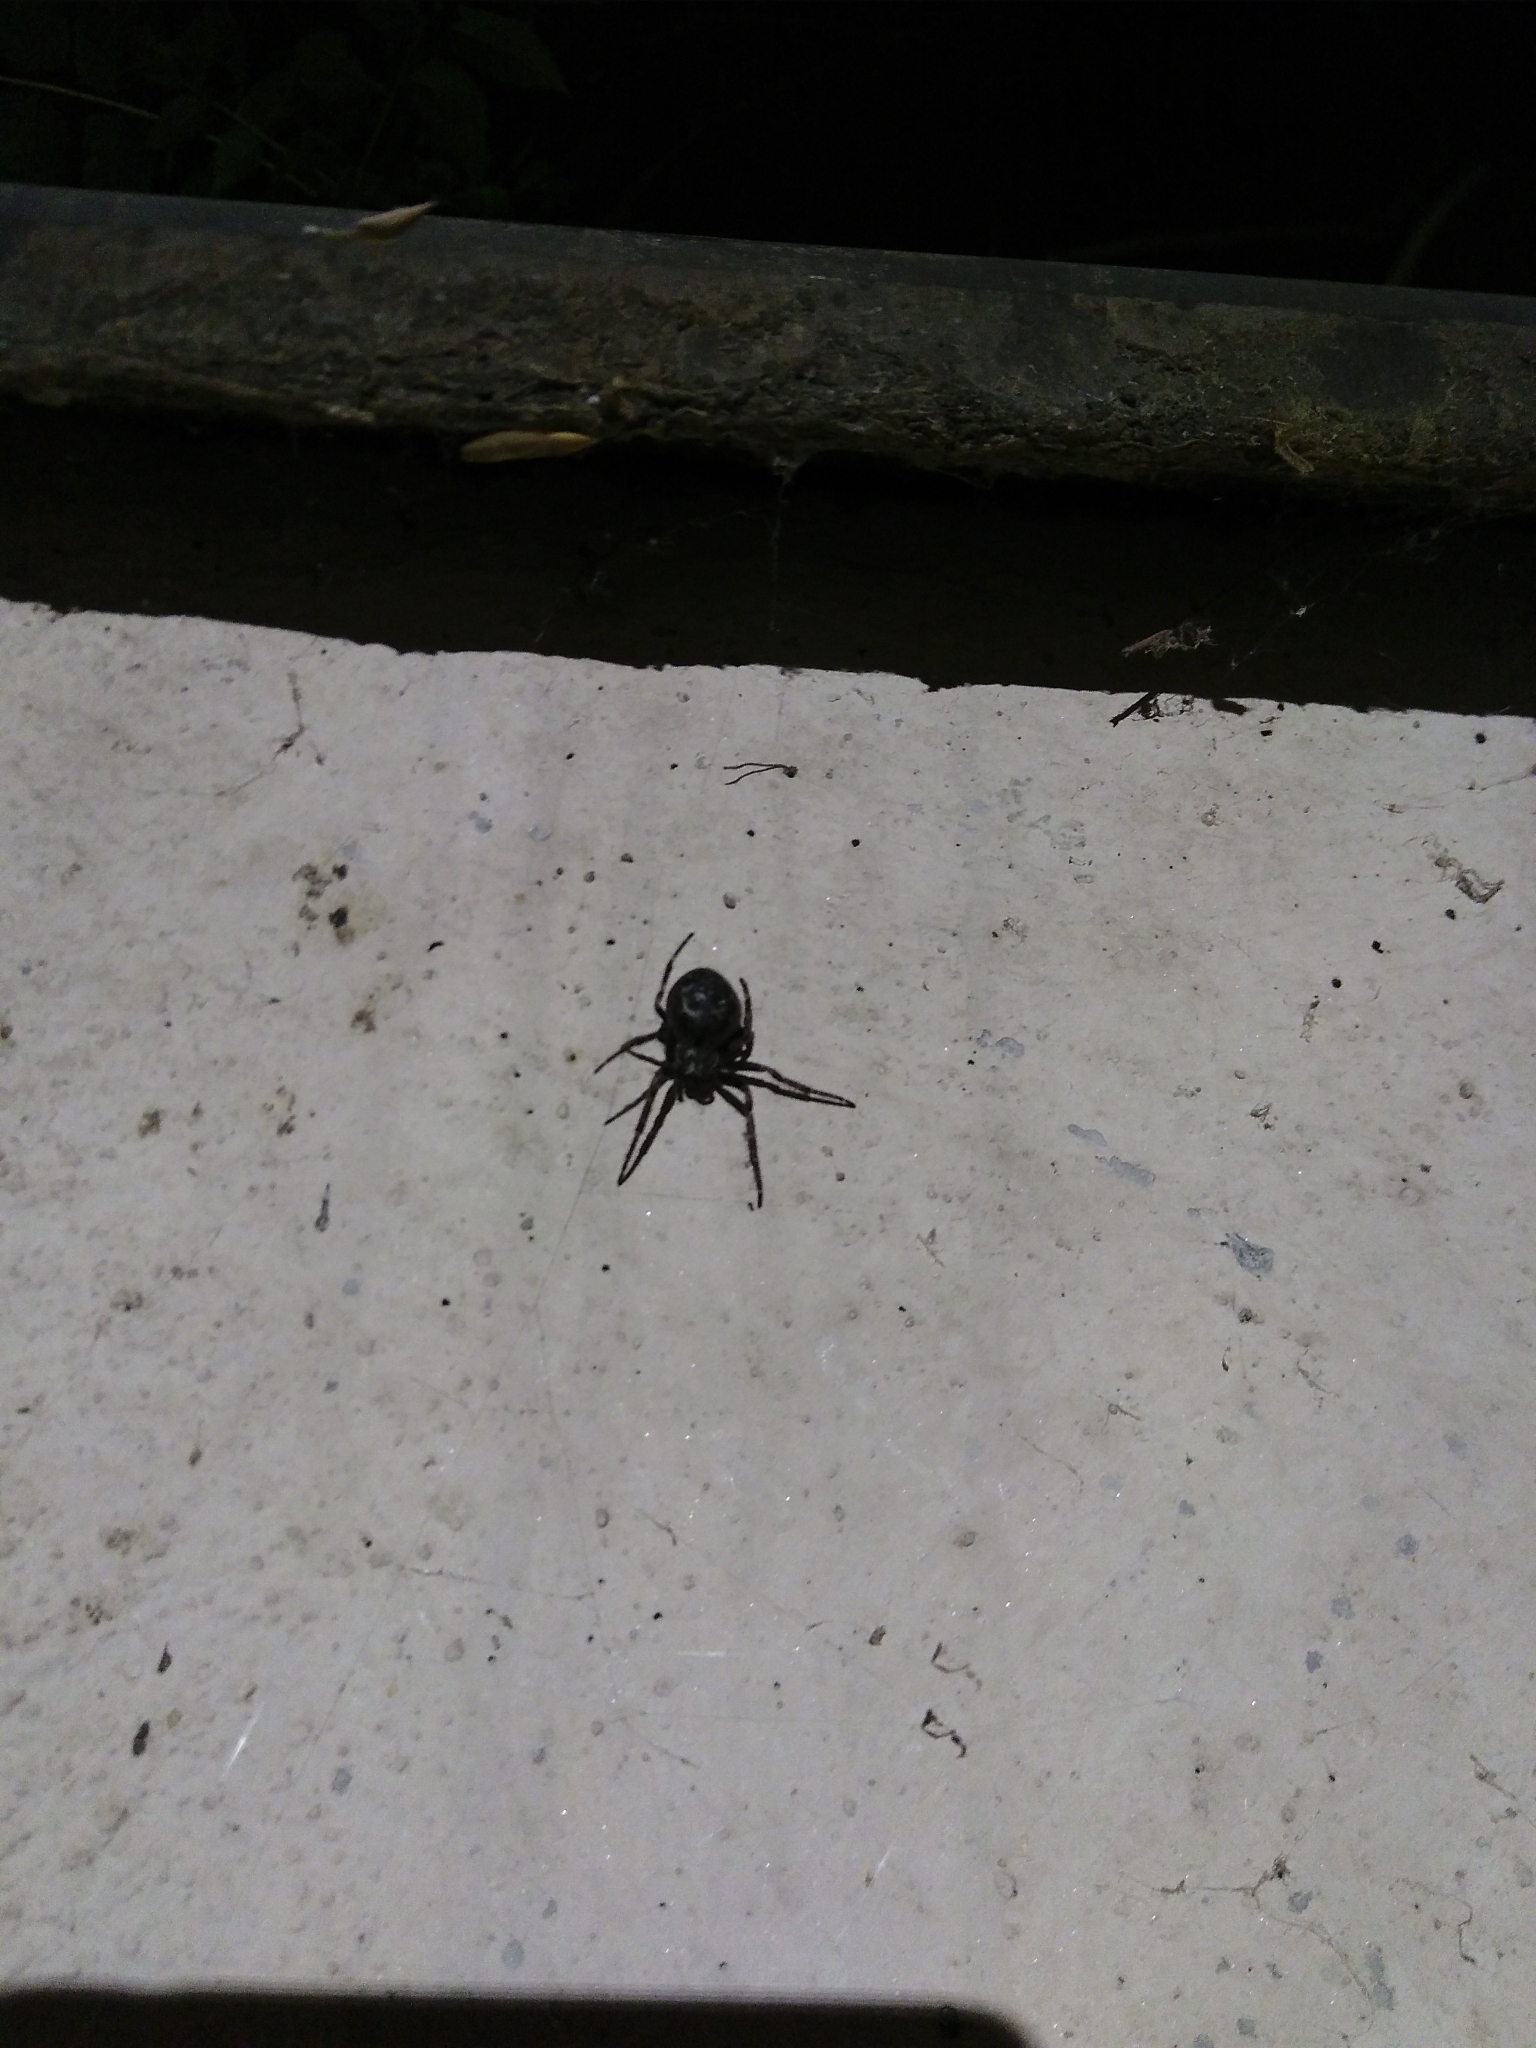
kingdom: Animalia
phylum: Arthropoda
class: Arachnida
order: Araneae
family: Araneidae
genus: Nuctenea
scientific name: Nuctenea umbratica
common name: Toad spider
